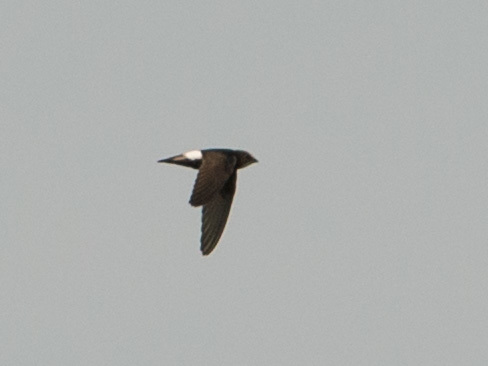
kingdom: Animalia
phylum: Chordata
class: Aves
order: Apodiformes
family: Apodidae
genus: Apus
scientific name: Apus affinis
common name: Little swift
